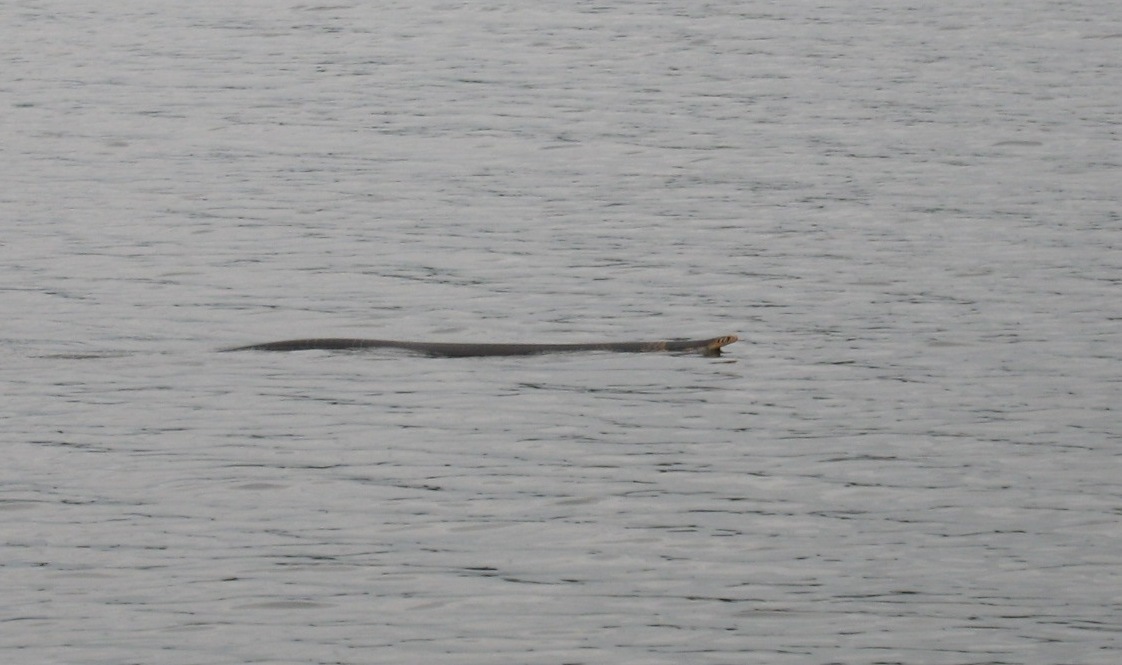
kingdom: Animalia
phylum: Chordata
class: Squamata
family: Elapidae
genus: Naja
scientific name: Naja melanoleuca
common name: Central africa forest cobra
